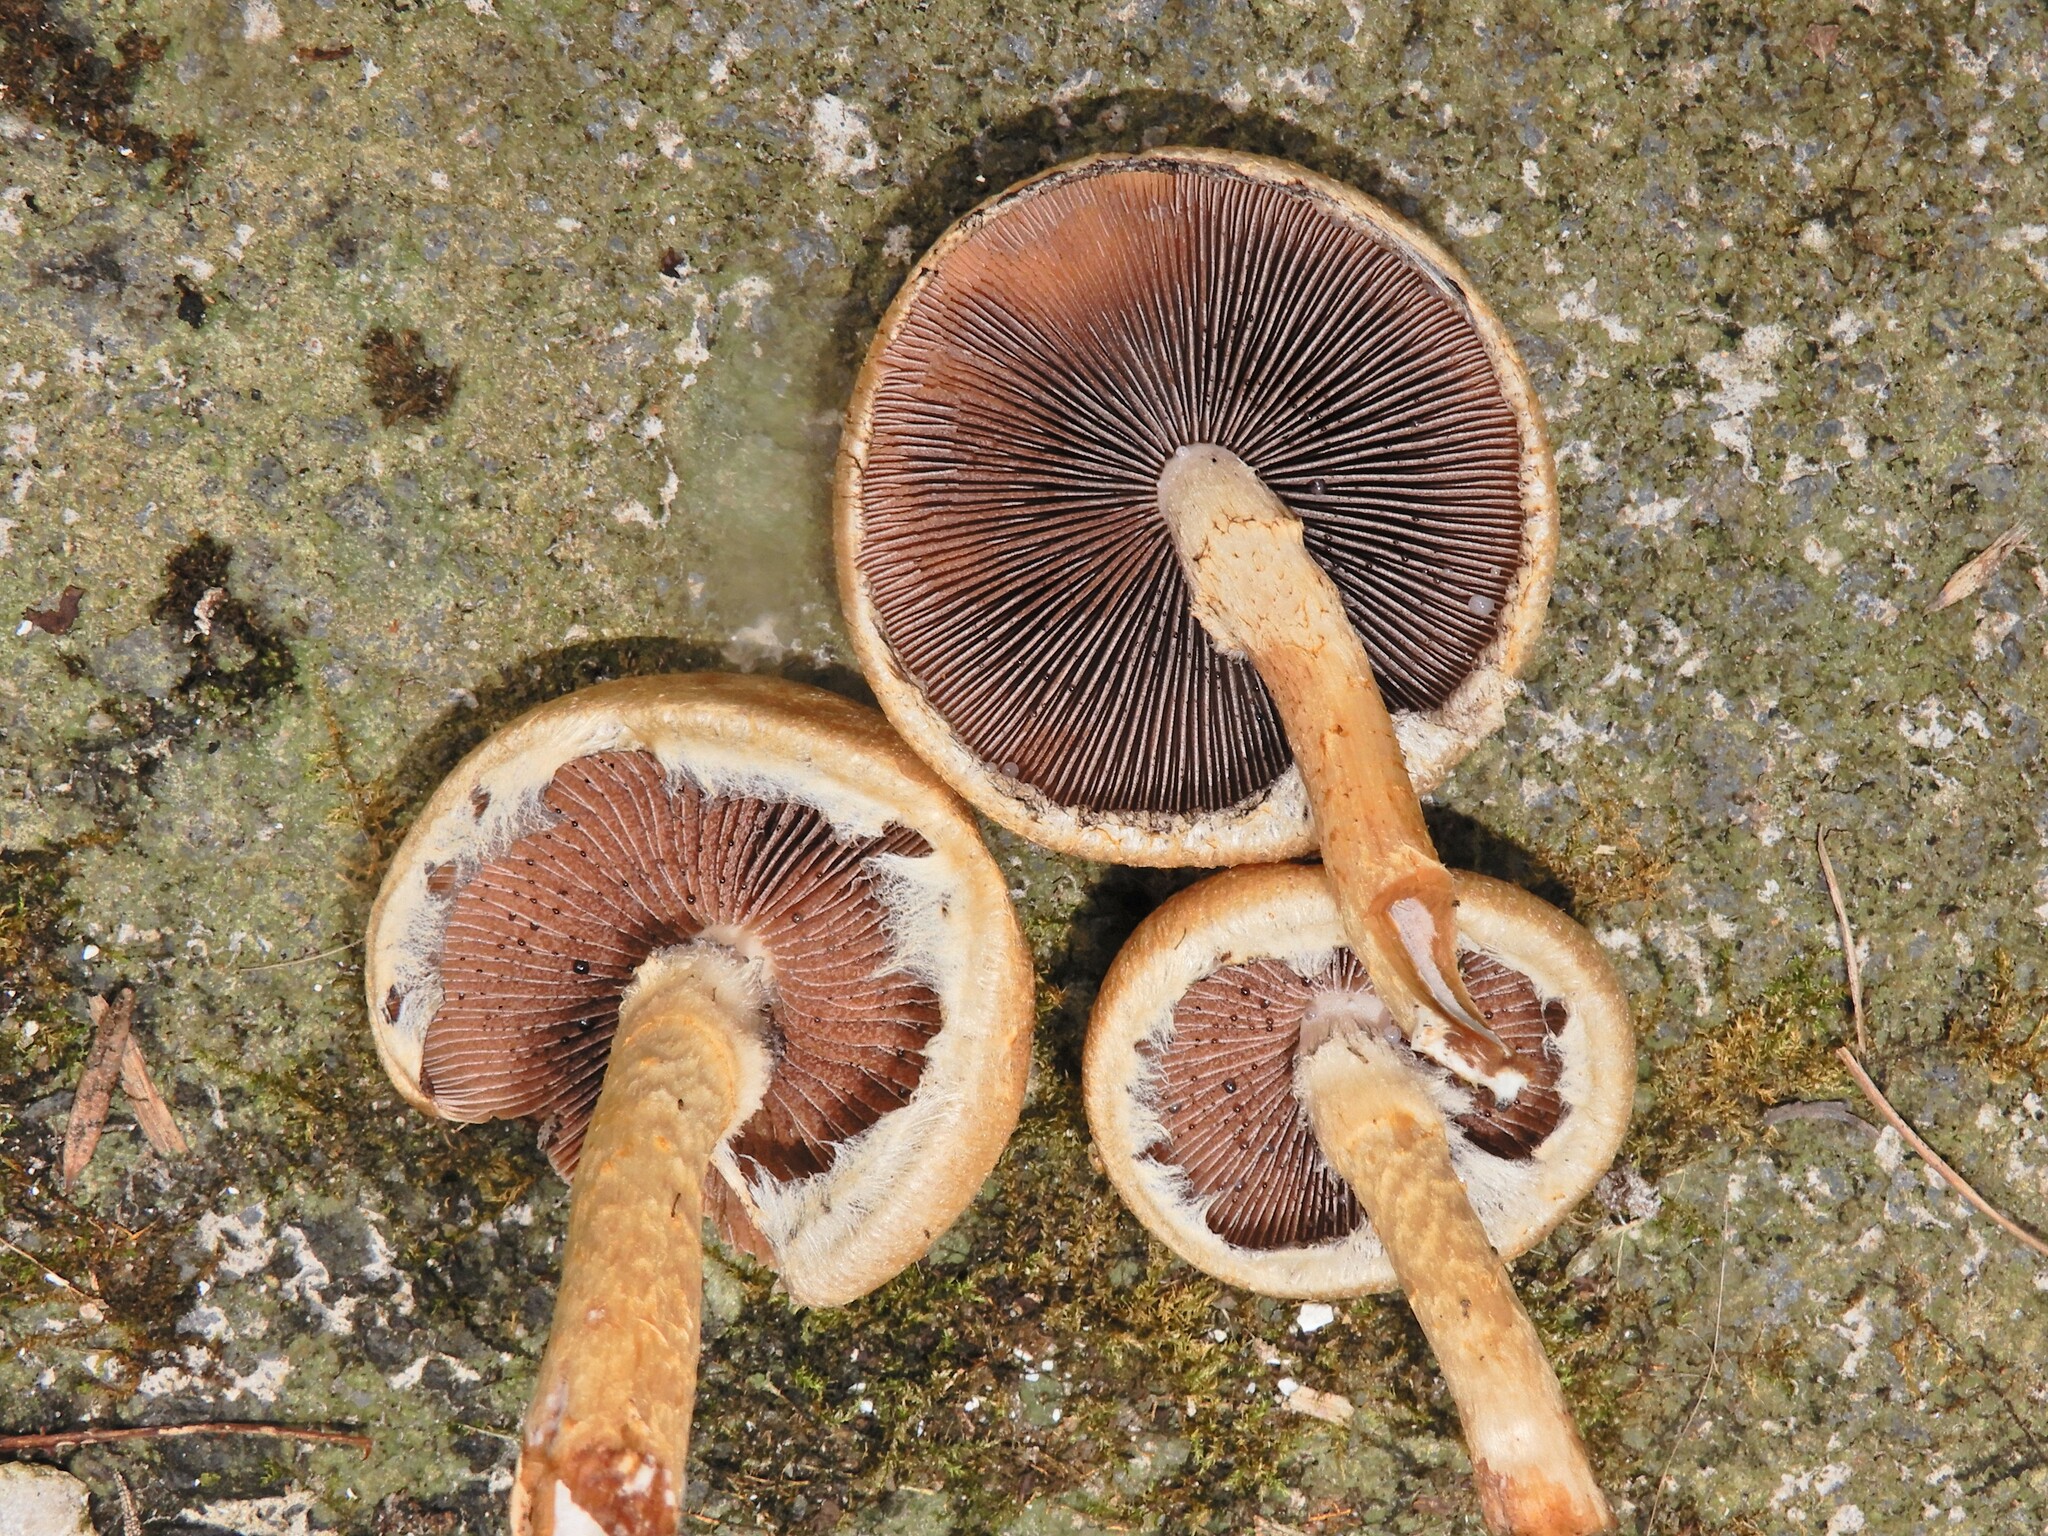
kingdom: Fungi
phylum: Basidiomycota
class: Agaricomycetes
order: Agaricales
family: Psathyrellaceae
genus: Lacrymaria
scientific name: Lacrymaria lacrymabunda
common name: Weeping widow
